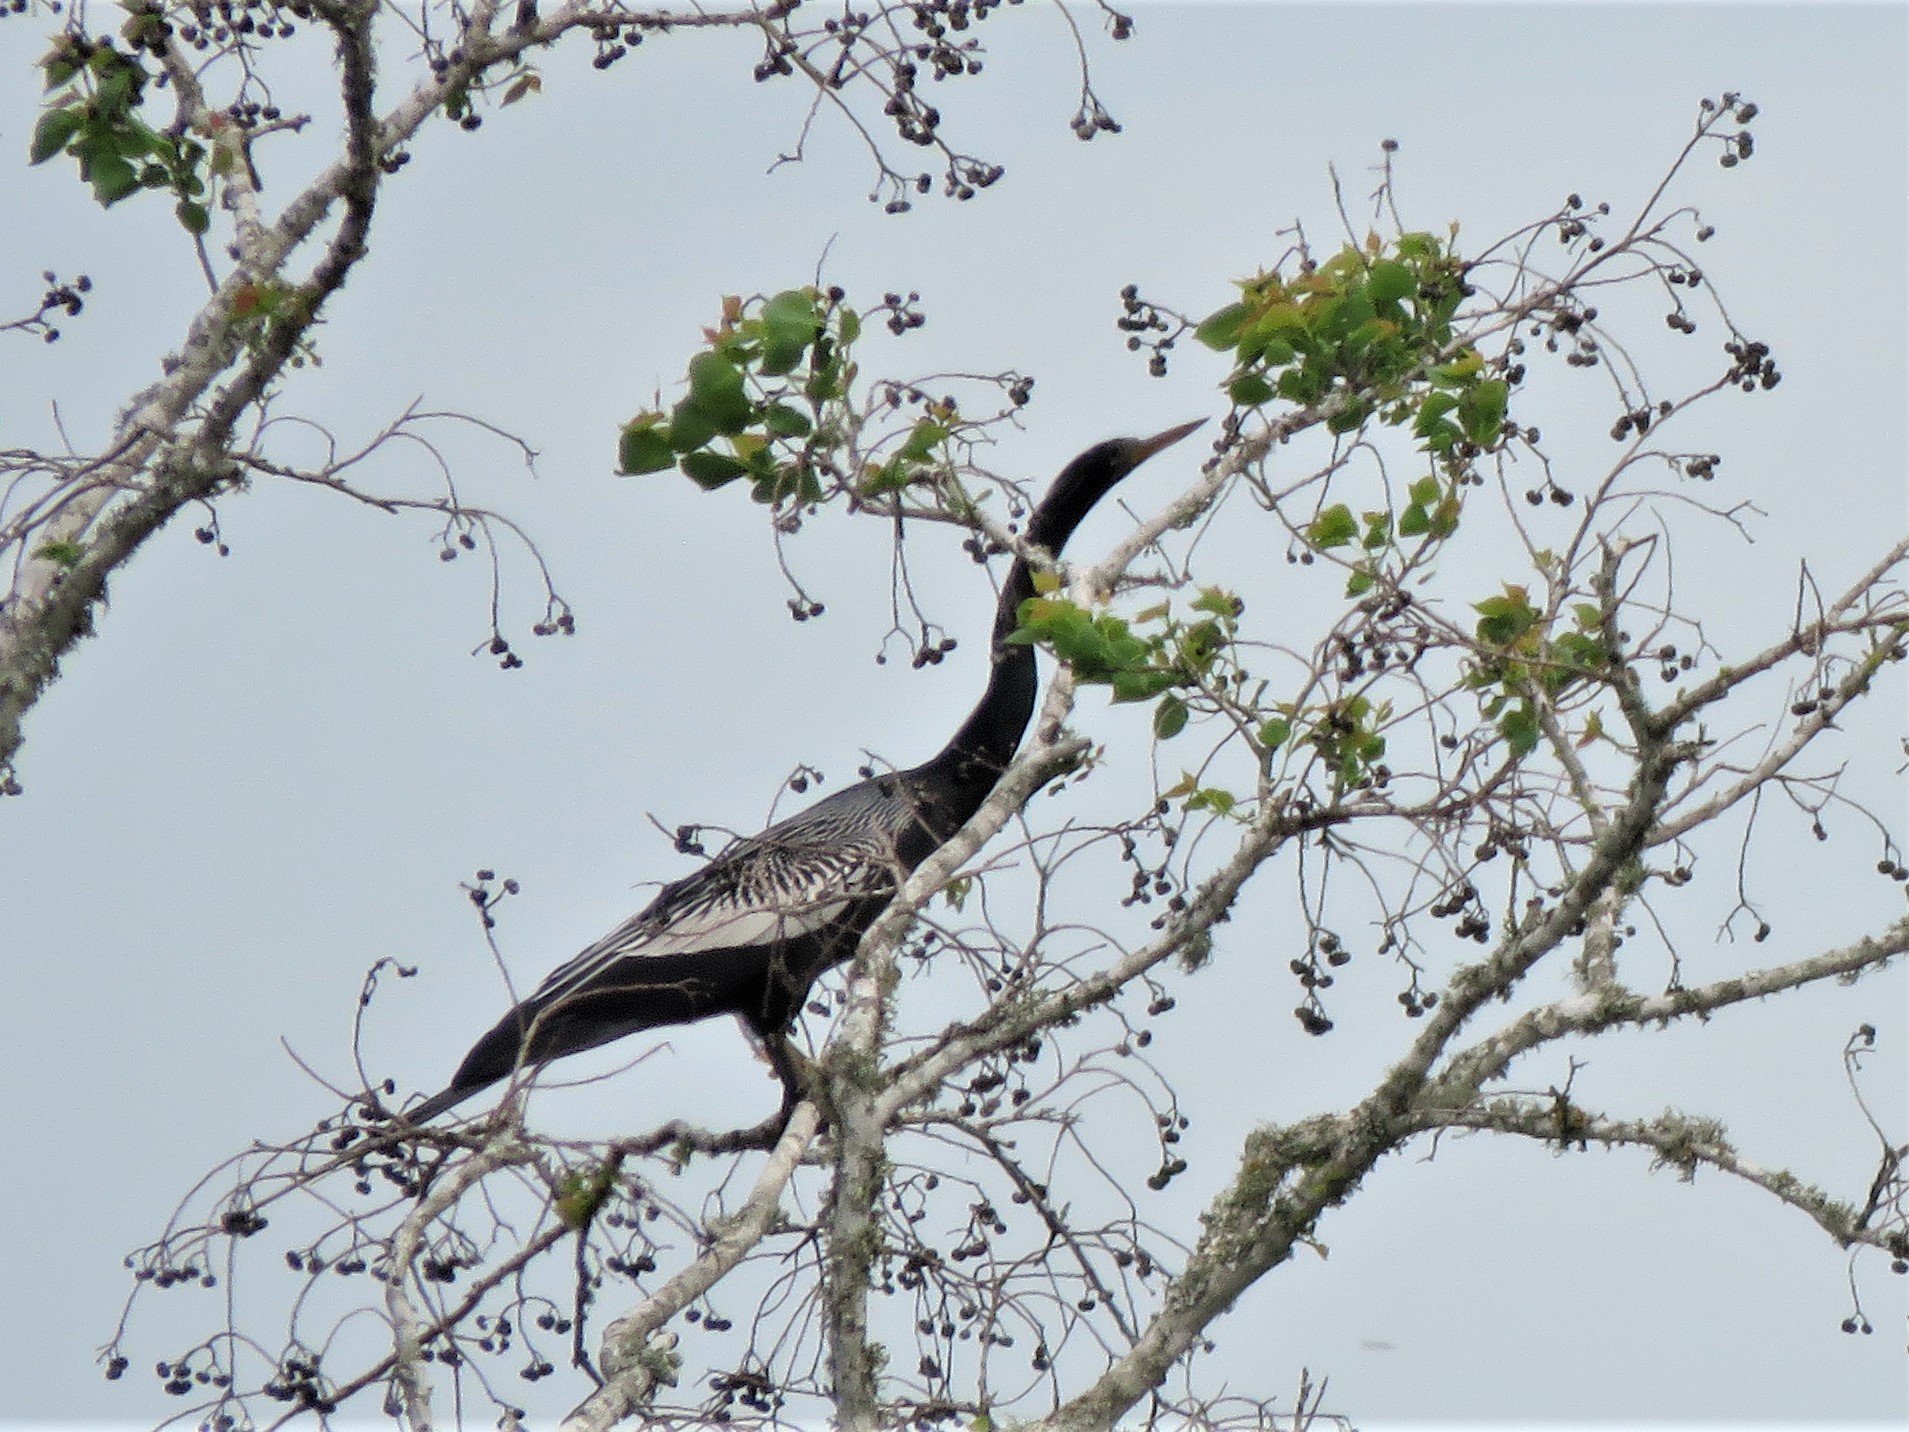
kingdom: Animalia
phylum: Chordata
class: Aves
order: Suliformes
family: Anhingidae
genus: Anhinga
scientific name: Anhinga anhinga
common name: Anhinga
